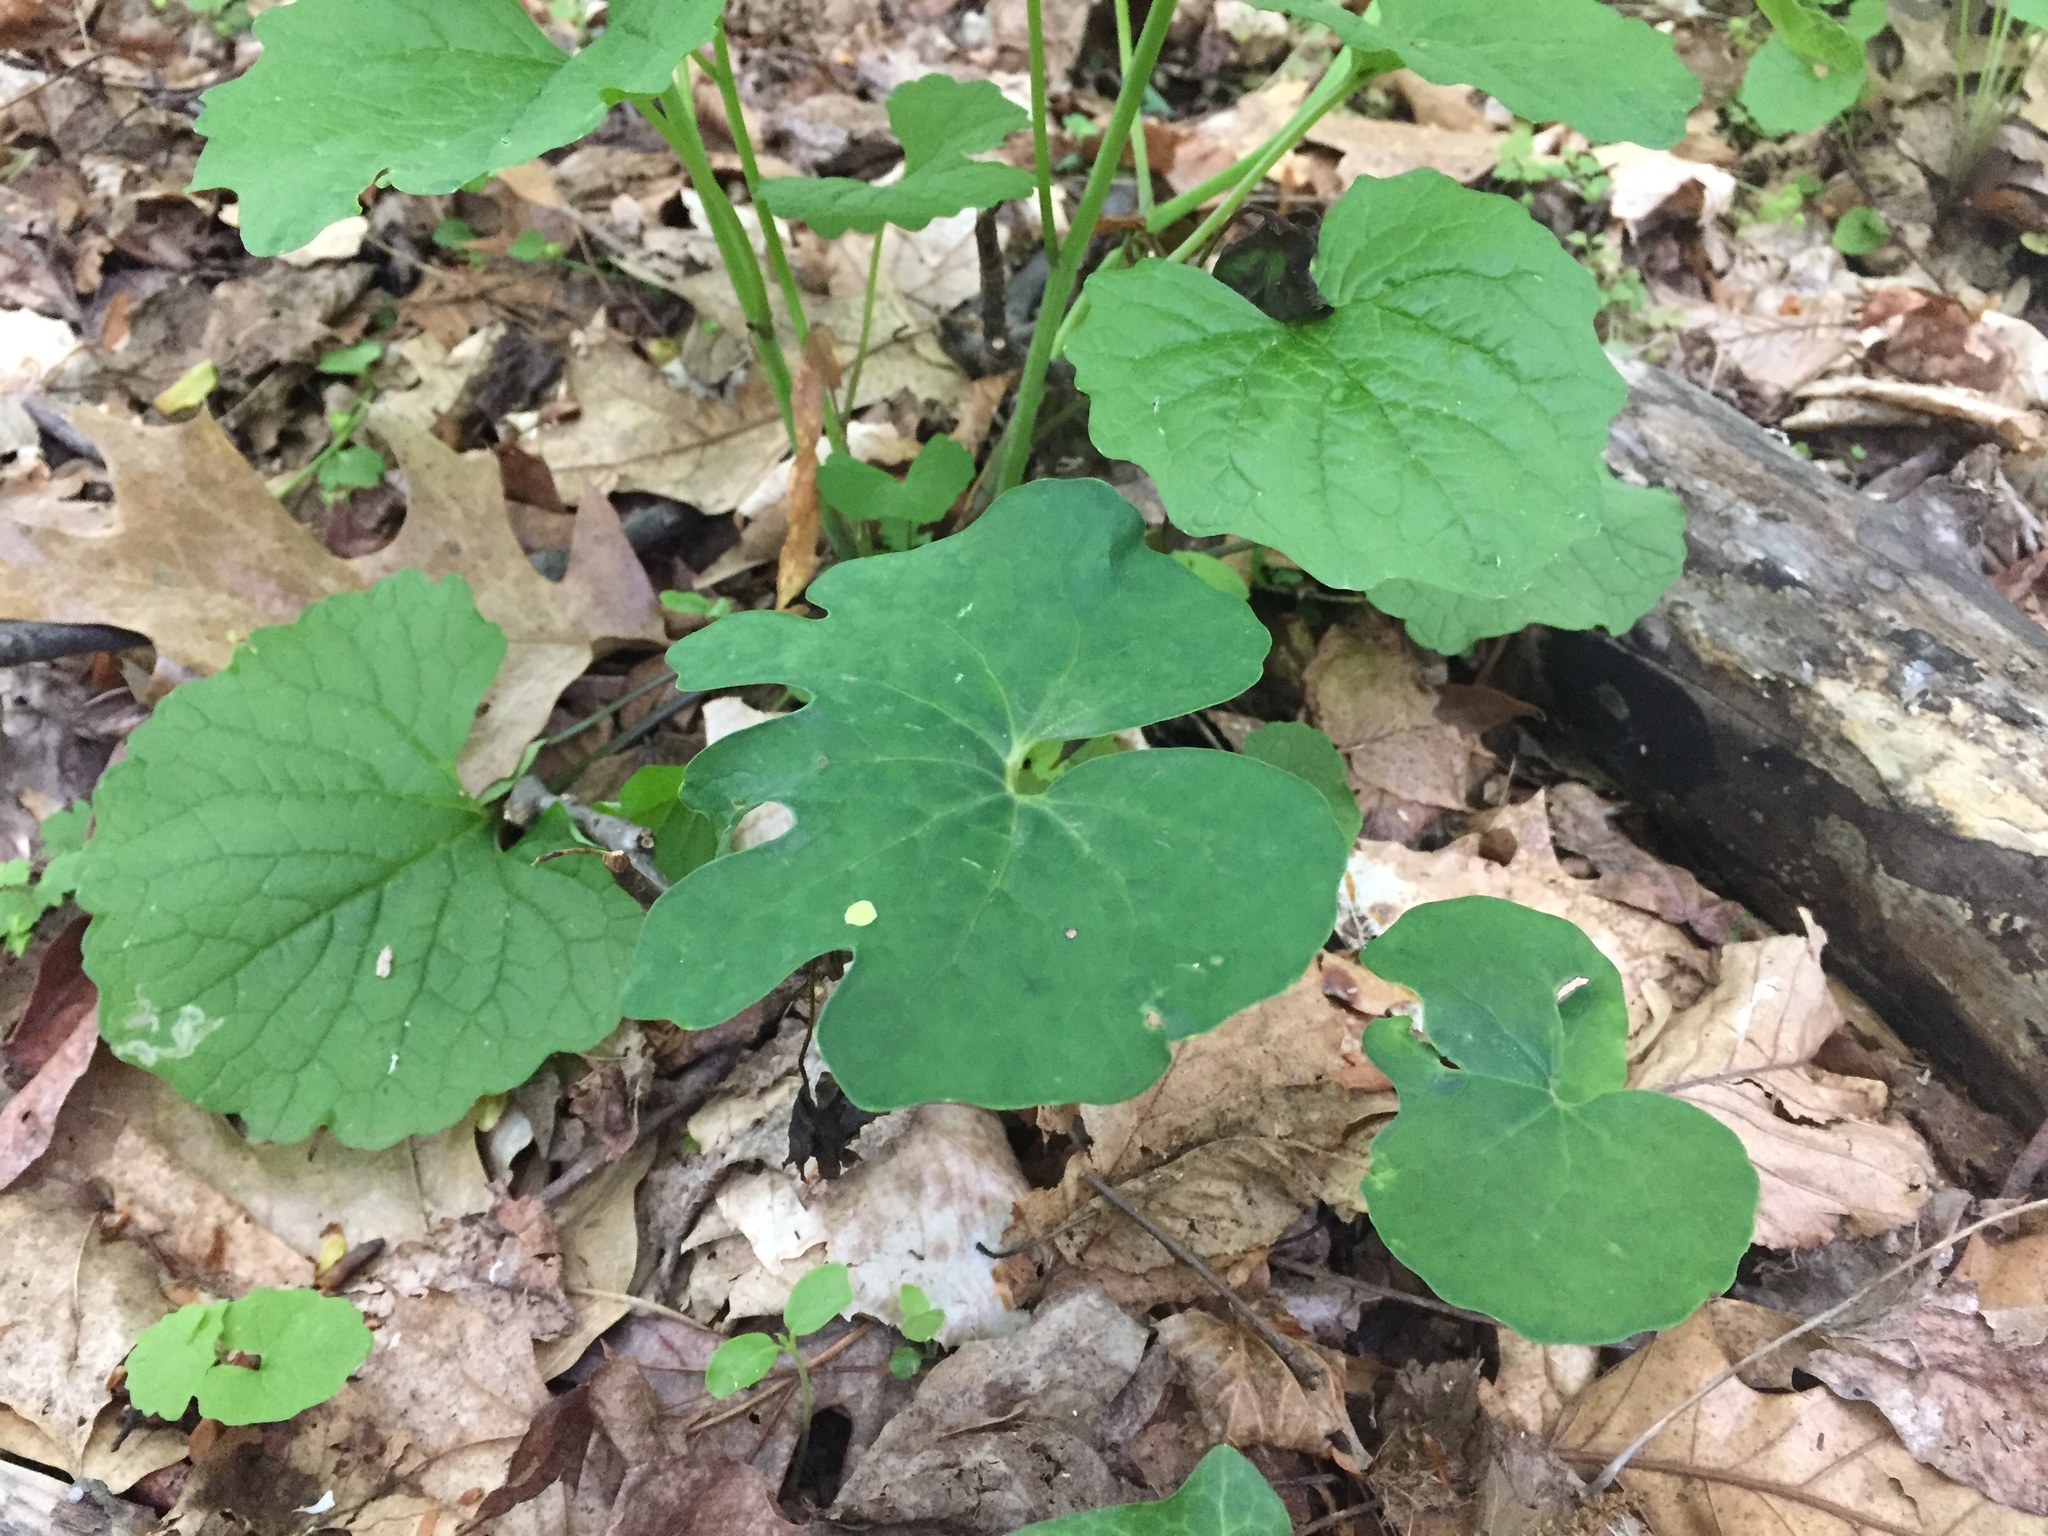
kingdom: Plantae
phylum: Tracheophyta
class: Magnoliopsida
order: Ranunculales
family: Papaveraceae
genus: Sanguinaria
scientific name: Sanguinaria canadensis
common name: Bloodroot
